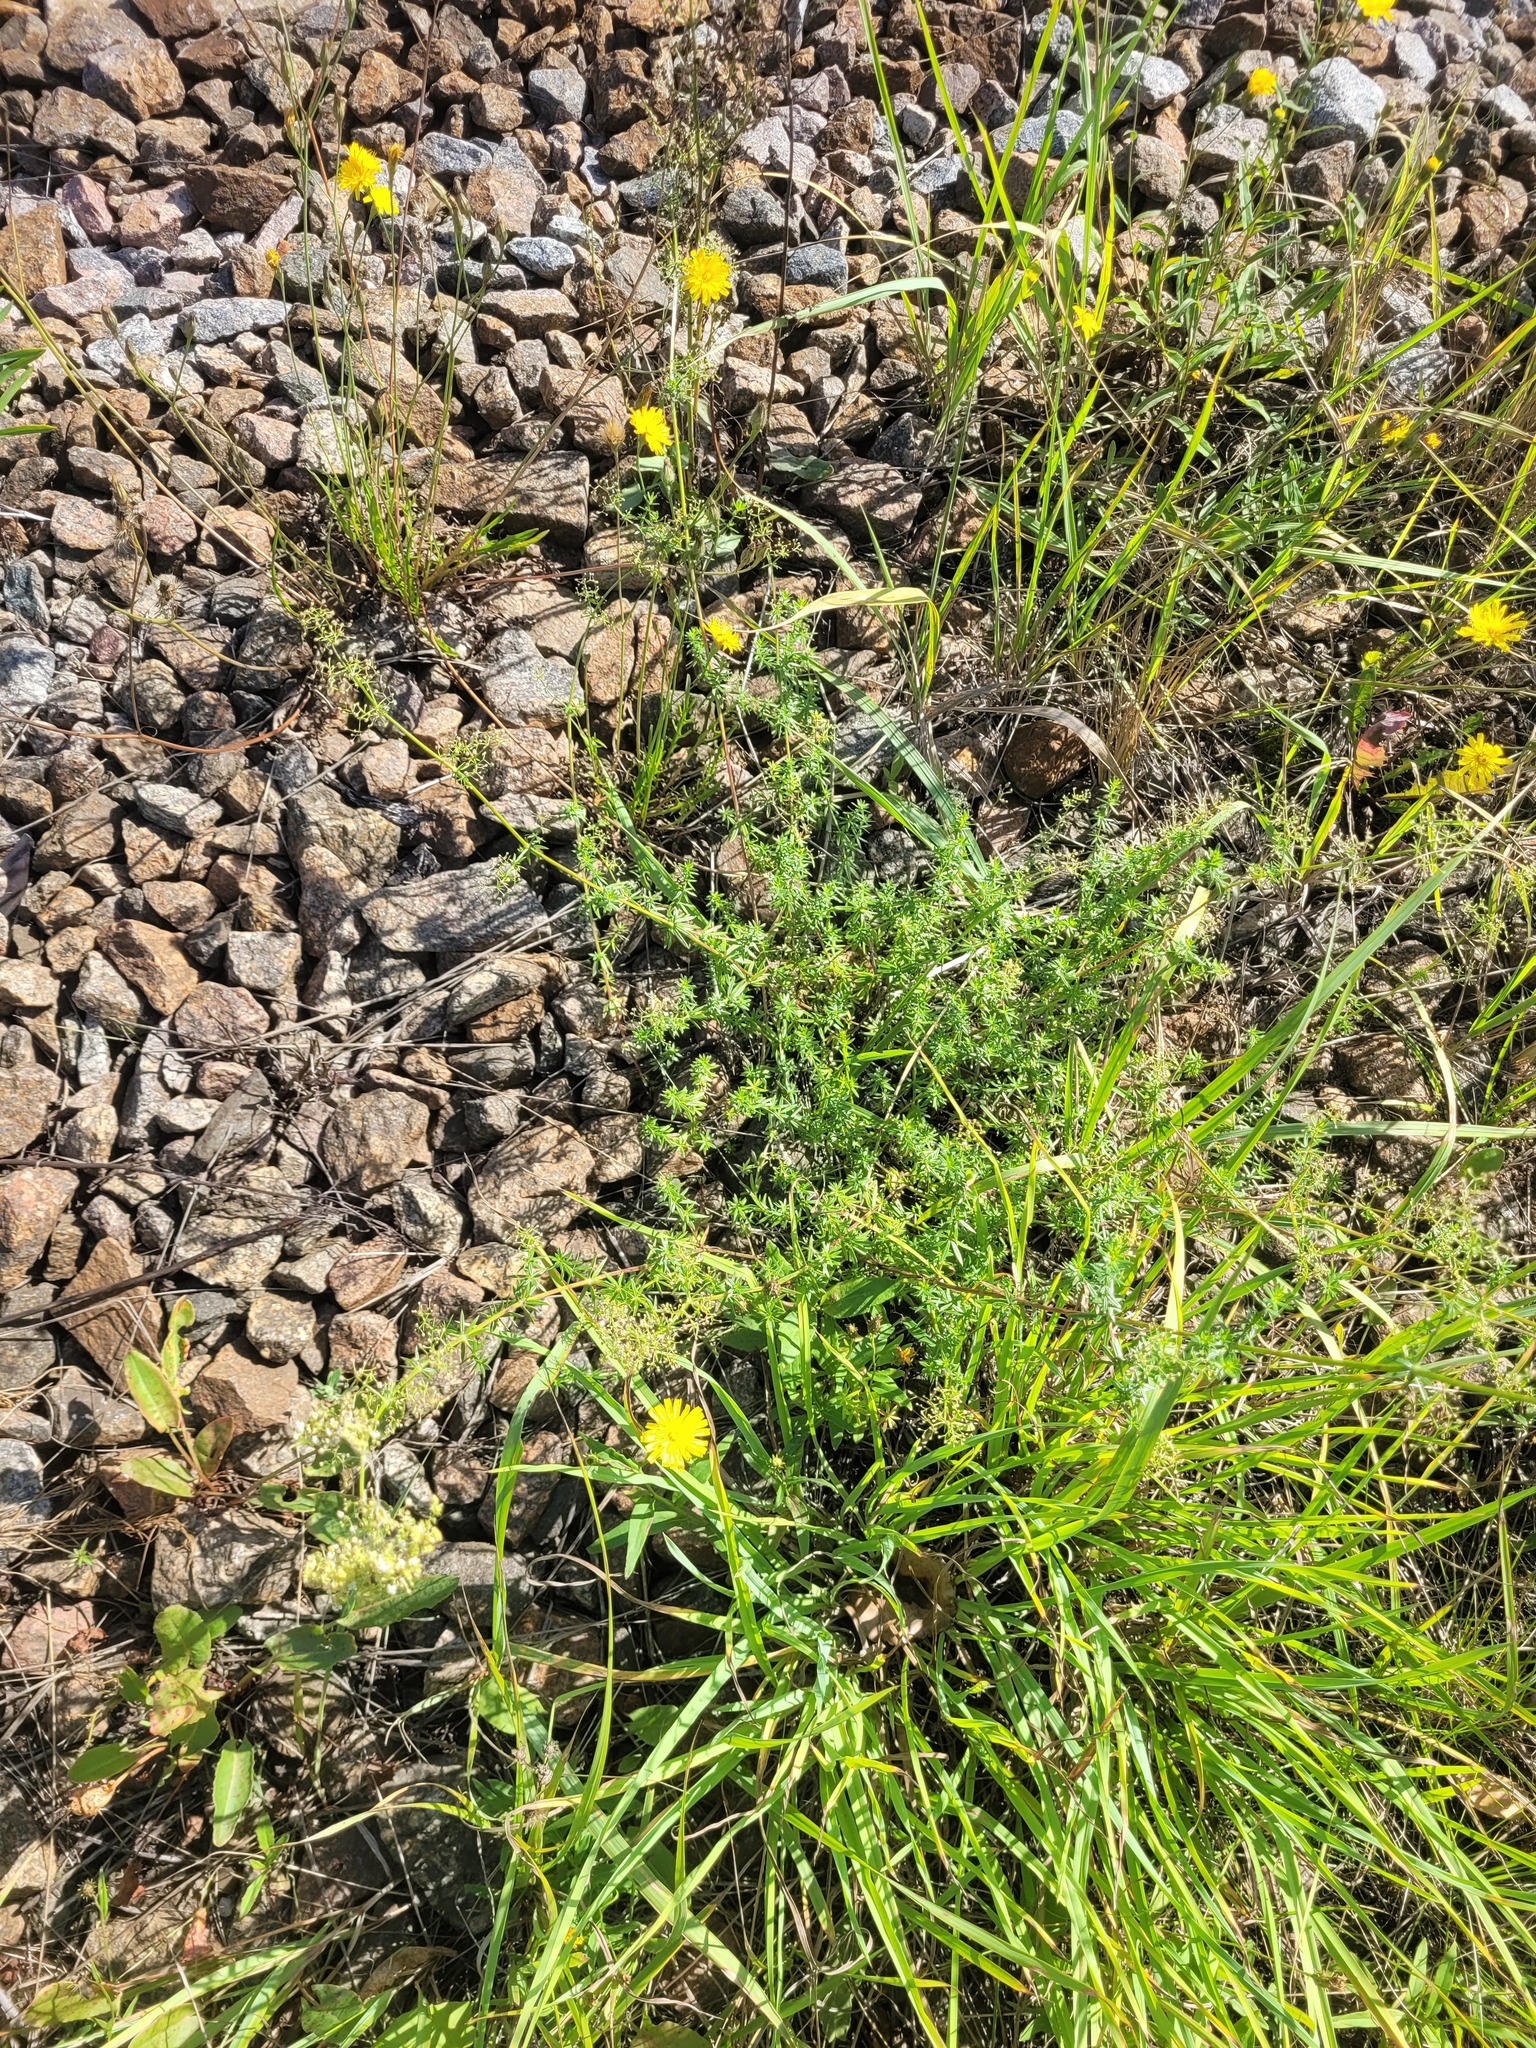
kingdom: Plantae
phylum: Tracheophyta
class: Magnoliopsida
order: Gentianales
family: Rubiaceae
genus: Galium
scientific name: Galium mollugo
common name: Hedge bedstraw
